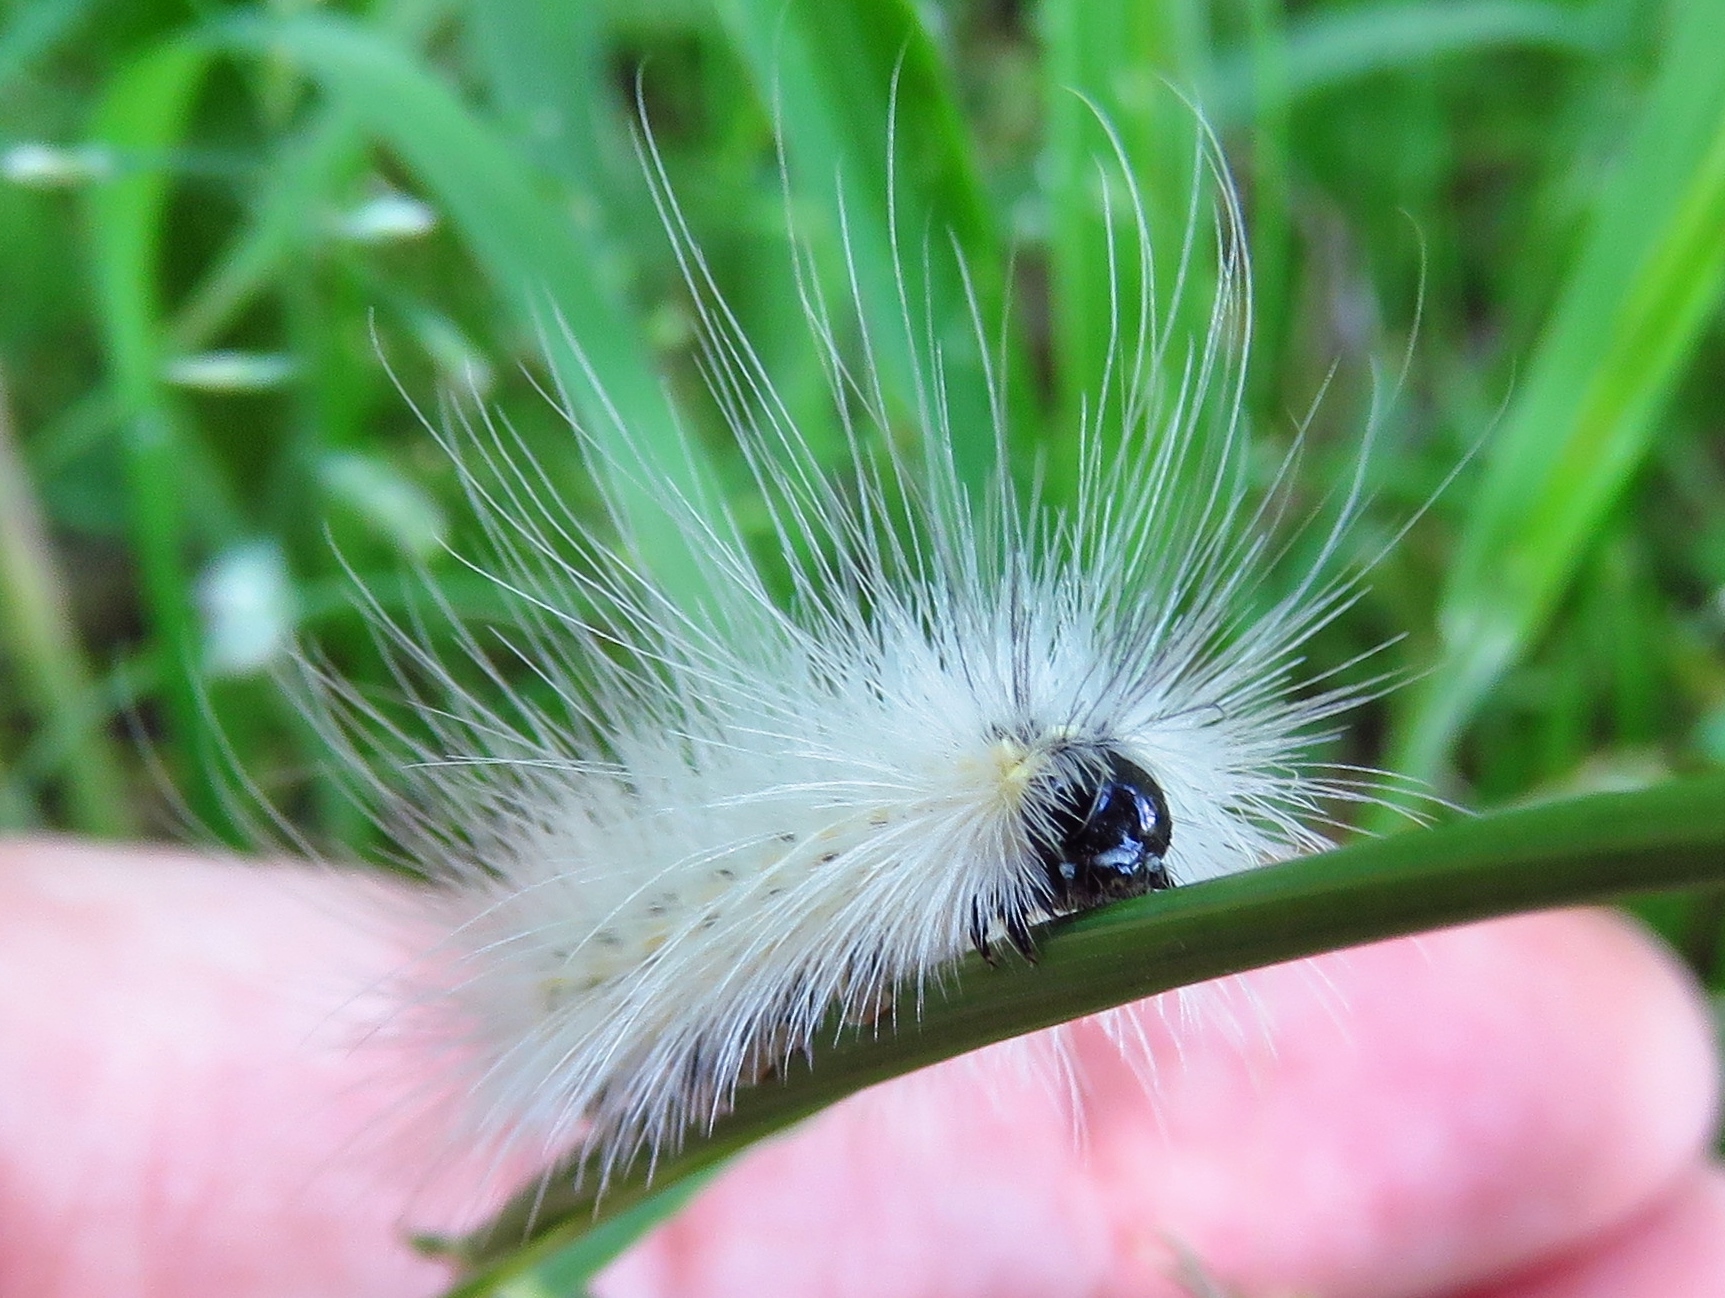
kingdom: Animalia
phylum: Arthropoda
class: Insecta
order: Lepidoptera
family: Erebidae
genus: Hyphantria
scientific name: Hyphantria cunea
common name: American white moth
